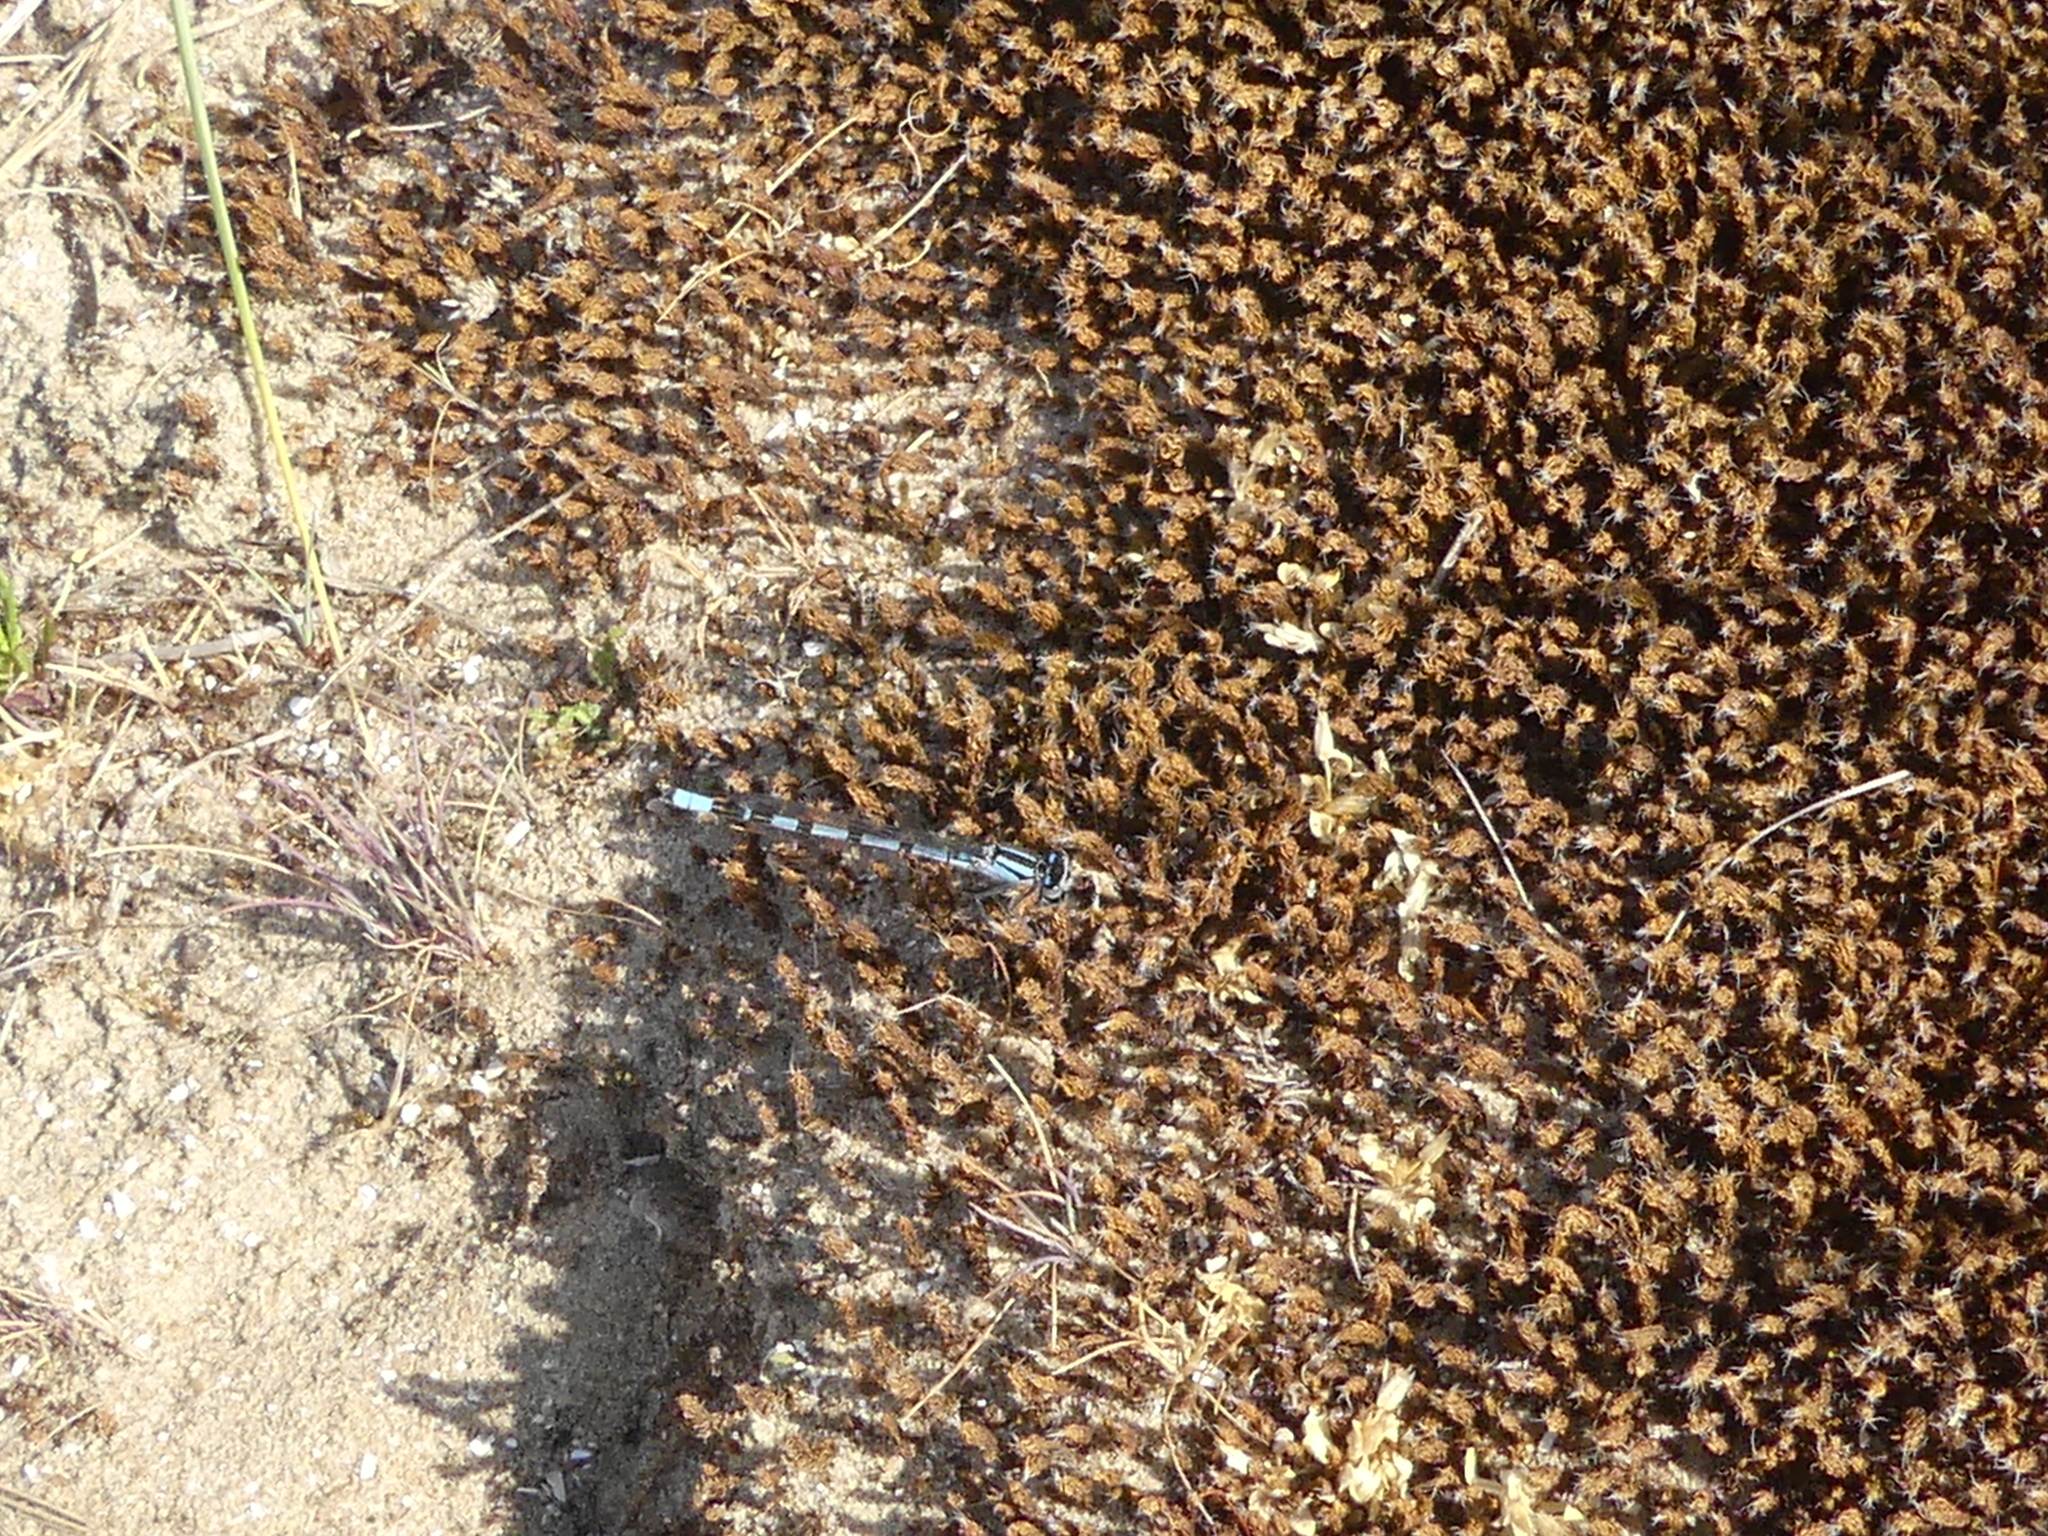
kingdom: Animalia
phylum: Arthropoda
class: Insecta
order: Odonata
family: Coenagrionidae
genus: Enallagma
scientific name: Enallagma cyathigerum
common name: Common blue damselfly
